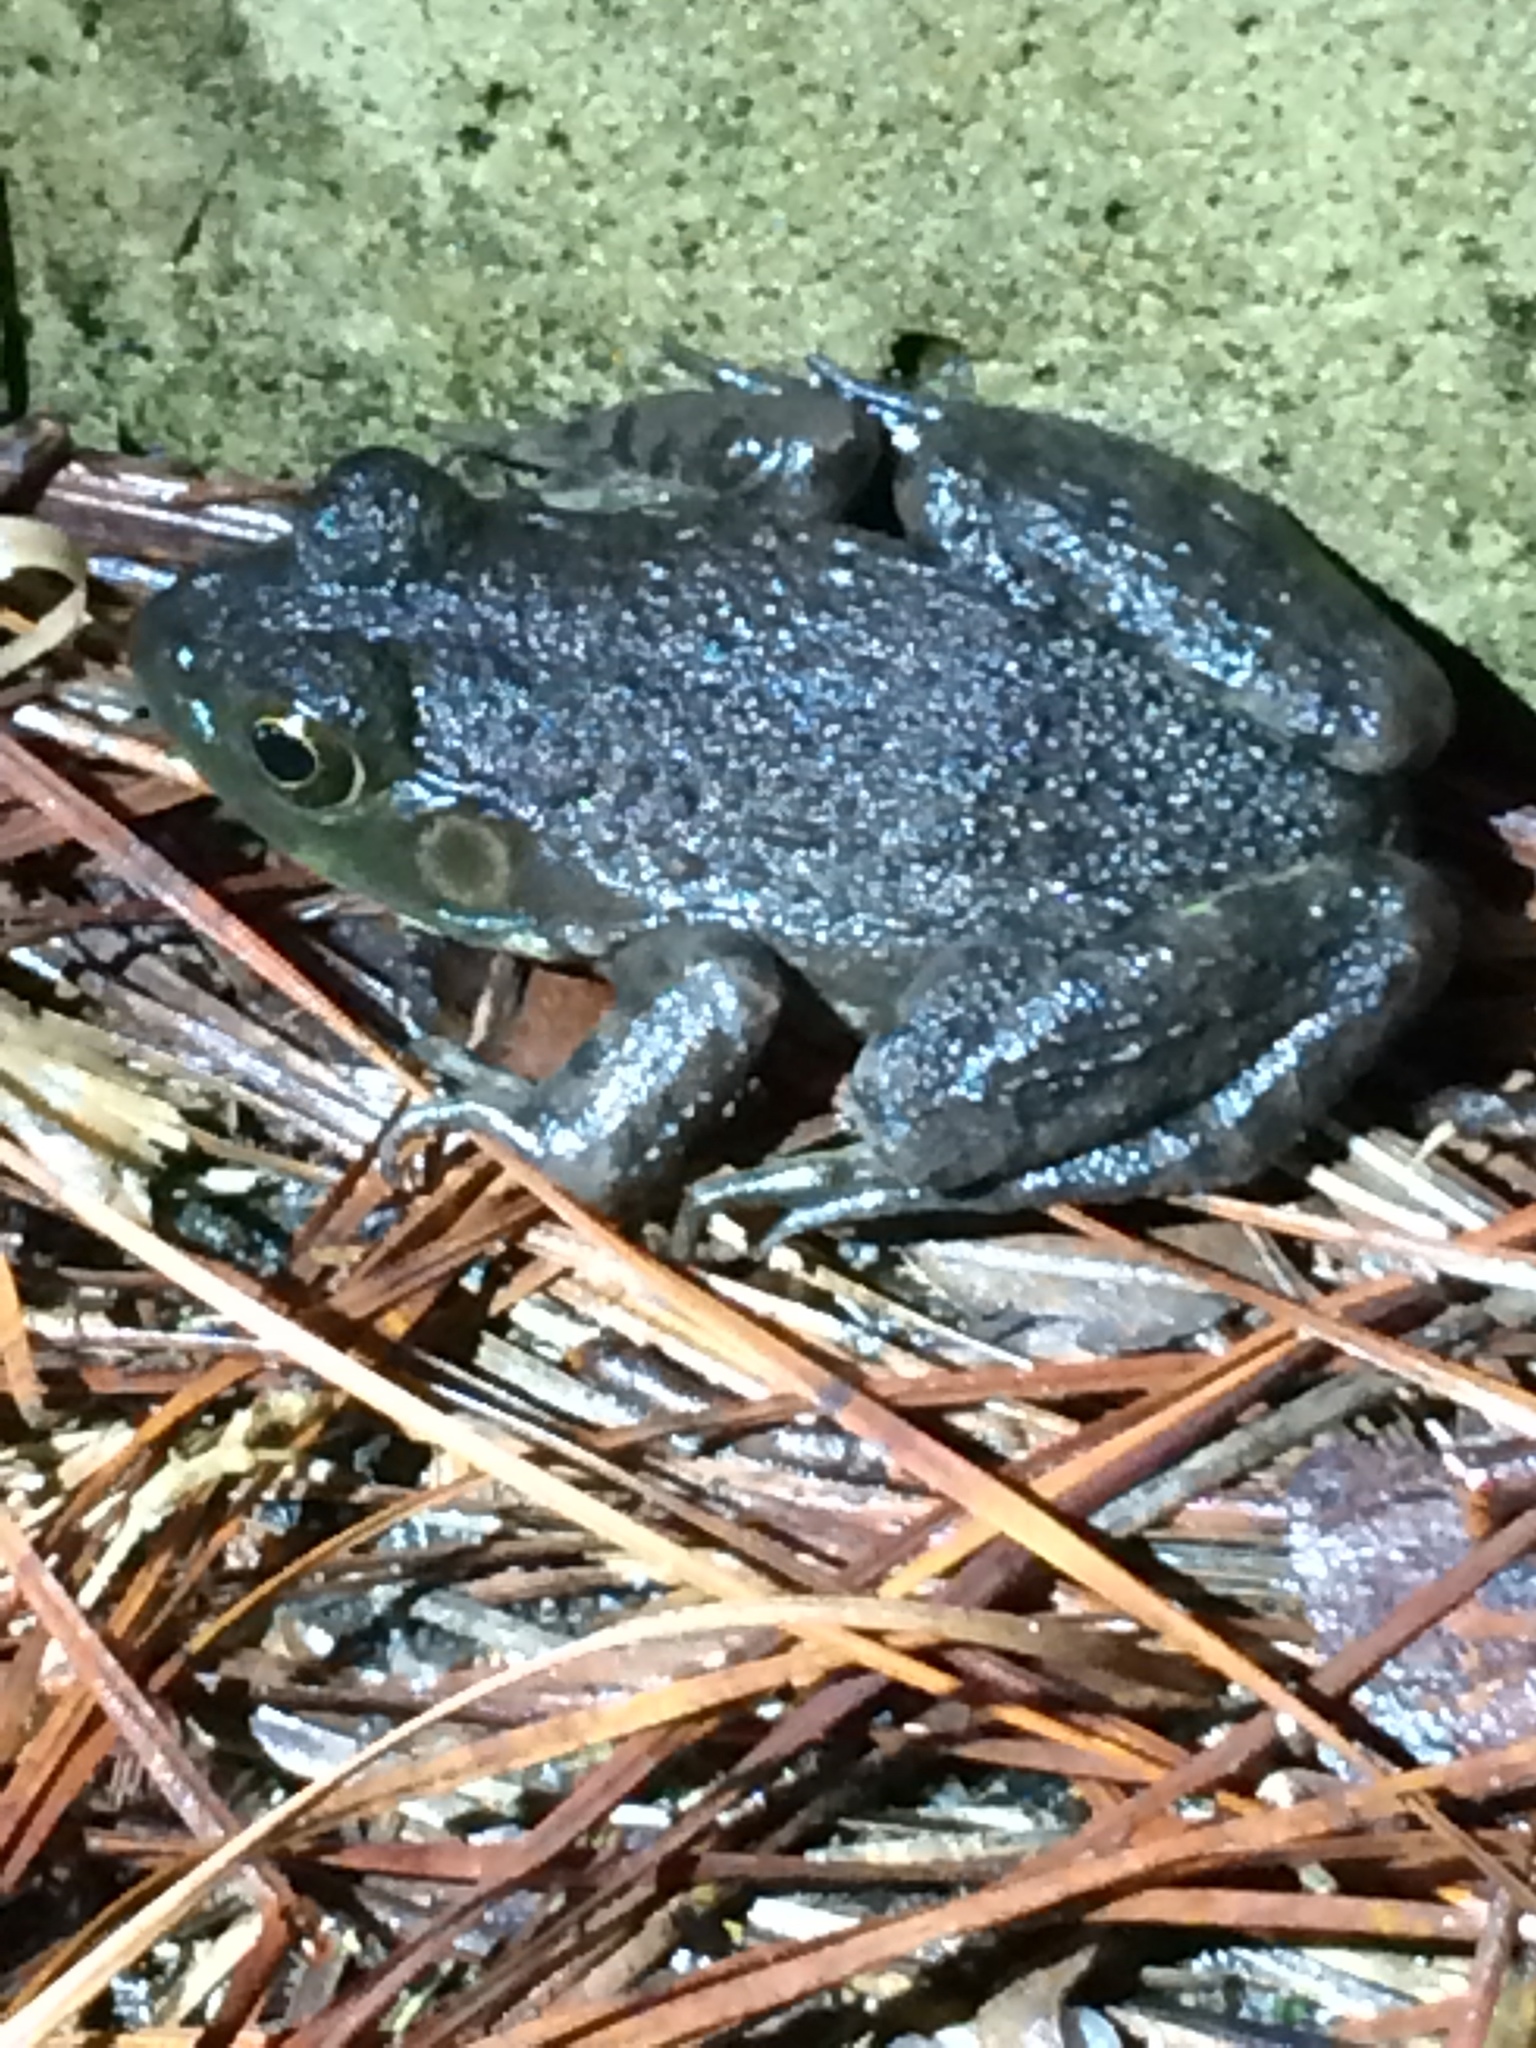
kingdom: Animalia
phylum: Chordata
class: Amphibia
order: Anura
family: Ranidae
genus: Lithobates
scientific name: Lithobates catesbeianus
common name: American bullfrog
